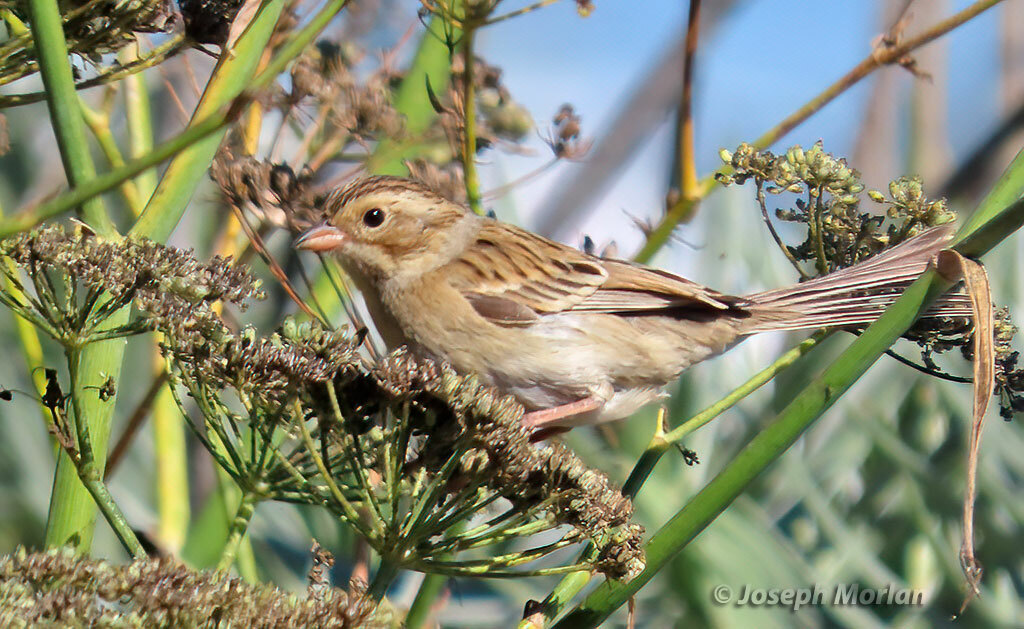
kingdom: Animalia
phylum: Chordata
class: Aves
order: Passeriformes
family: Passerellidae
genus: Spizella
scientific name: Spizella pallida
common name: Clay-colored sparrow
